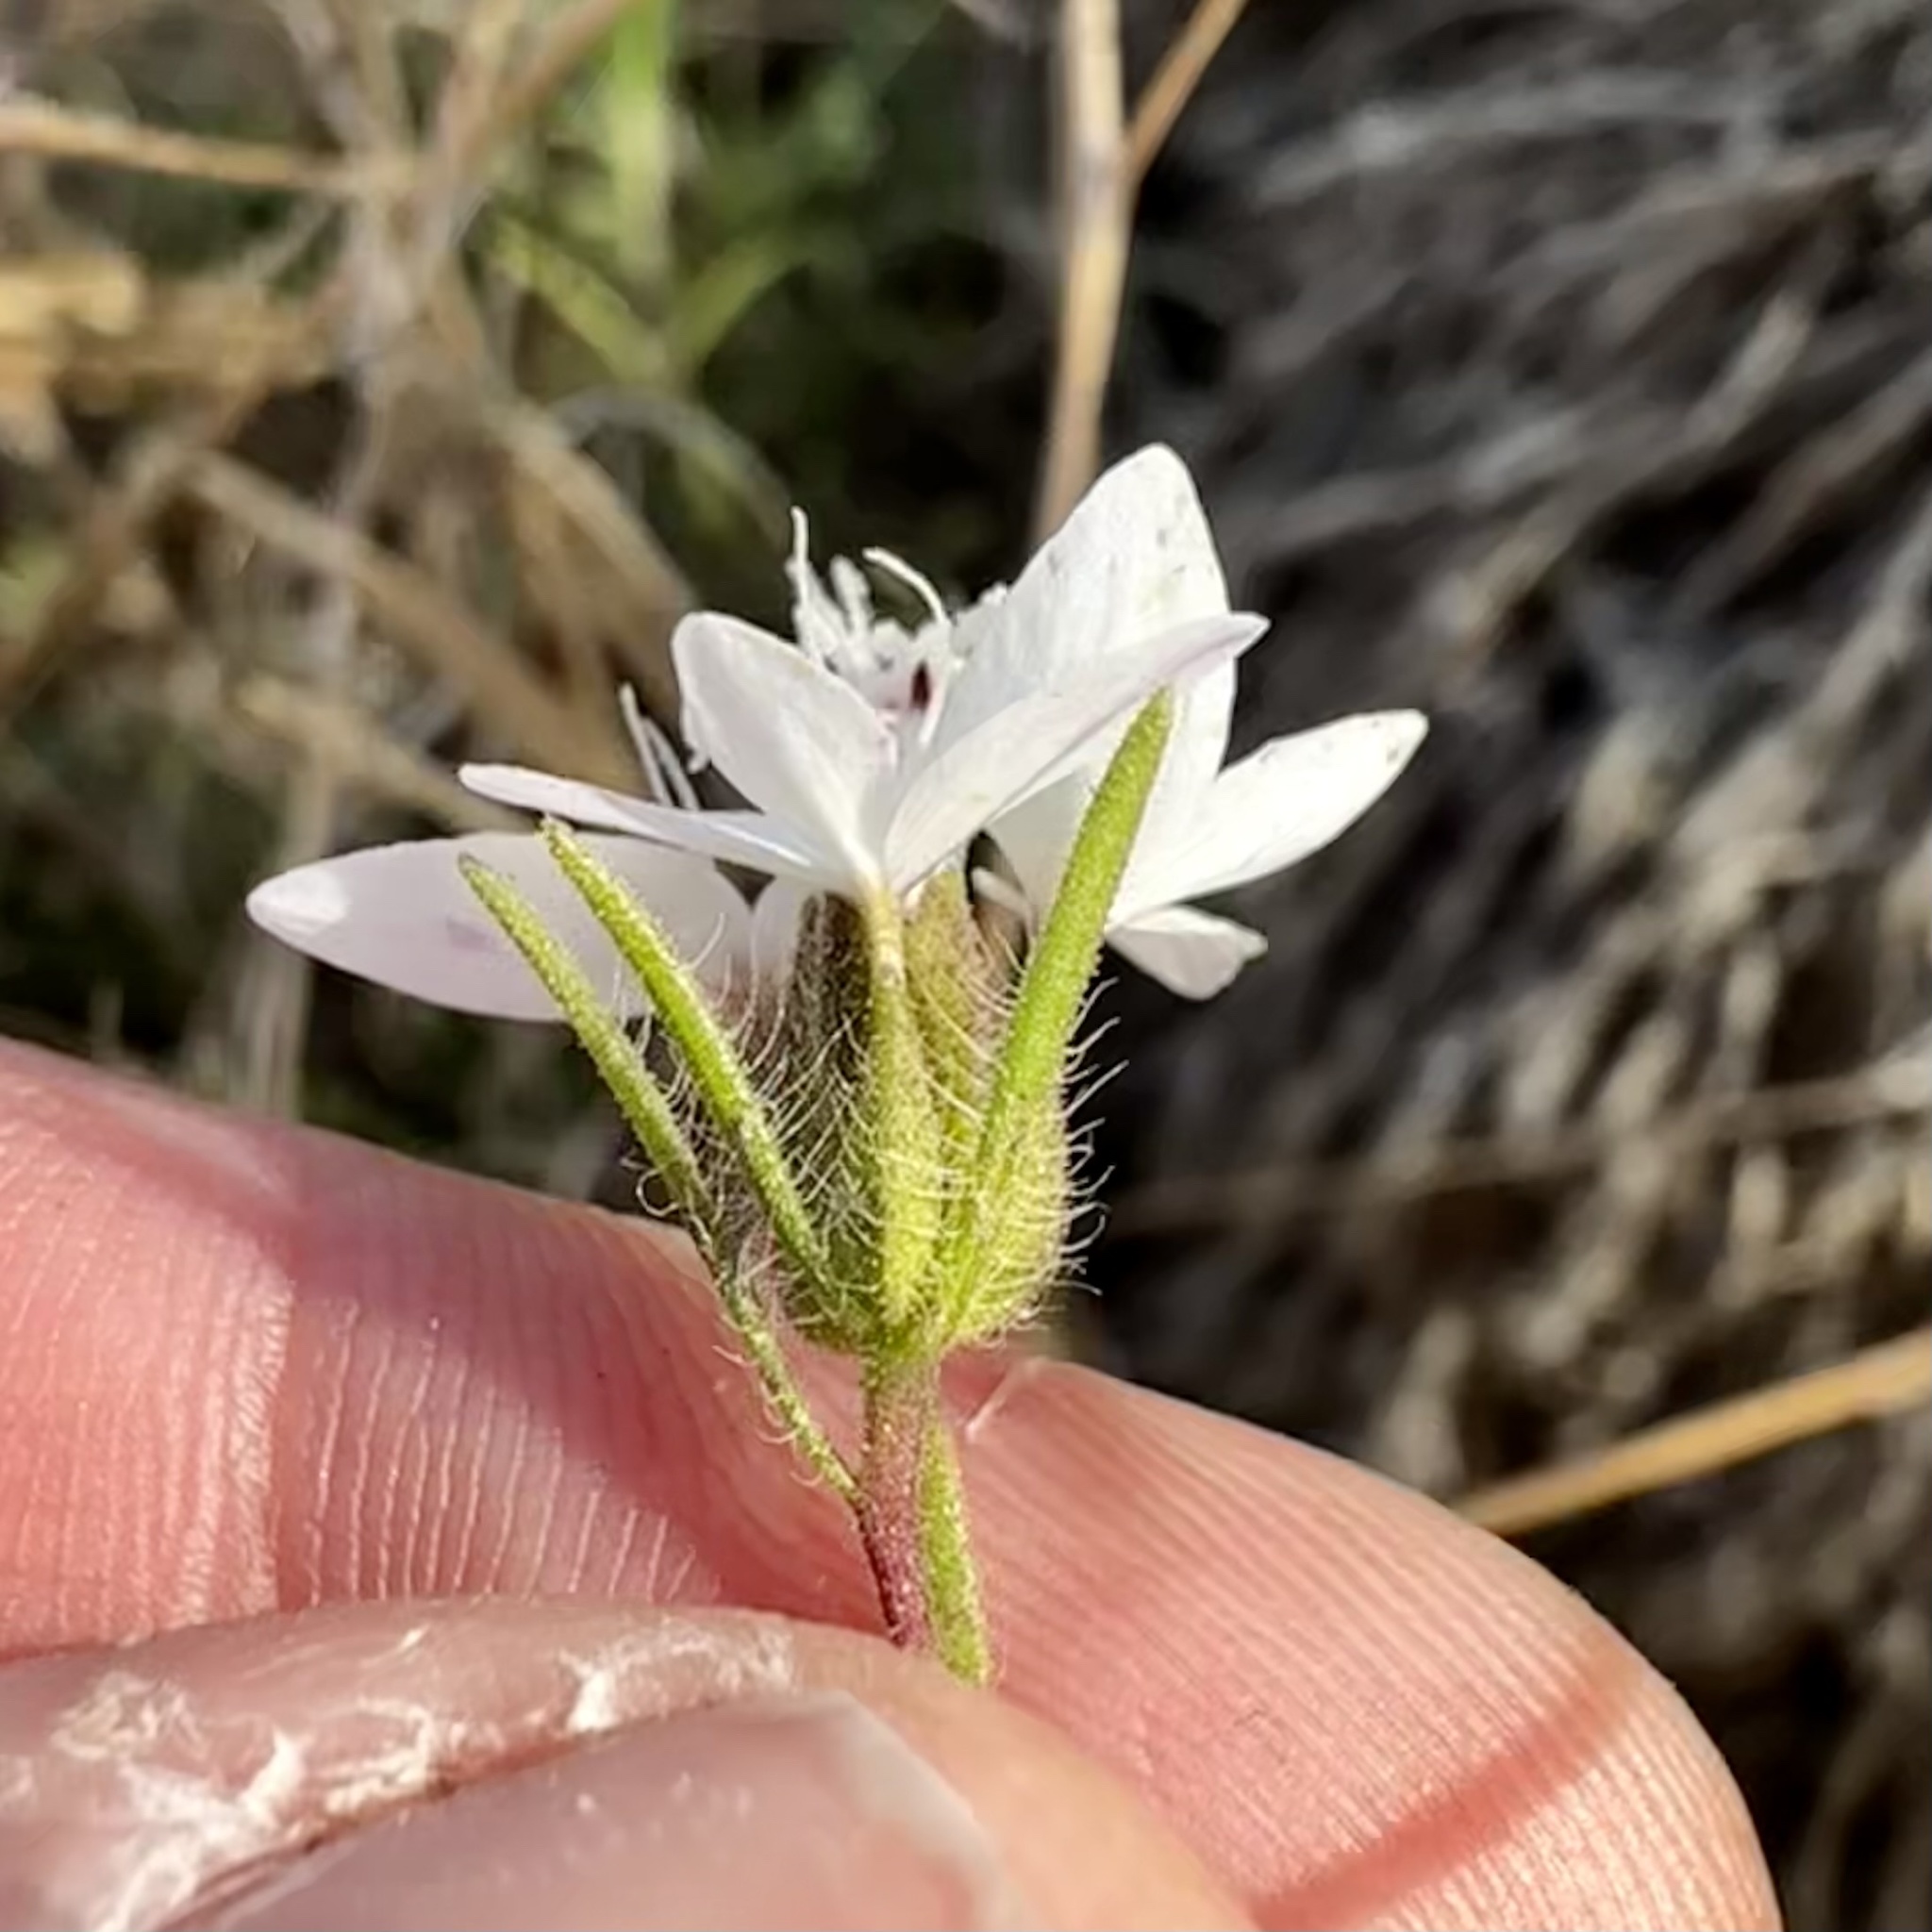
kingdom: Plantae
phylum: Tracheophyta
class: Magnoliopsida
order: Asterales
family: Asteraceae
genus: Osmadenia
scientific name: Osmadenia tenella
